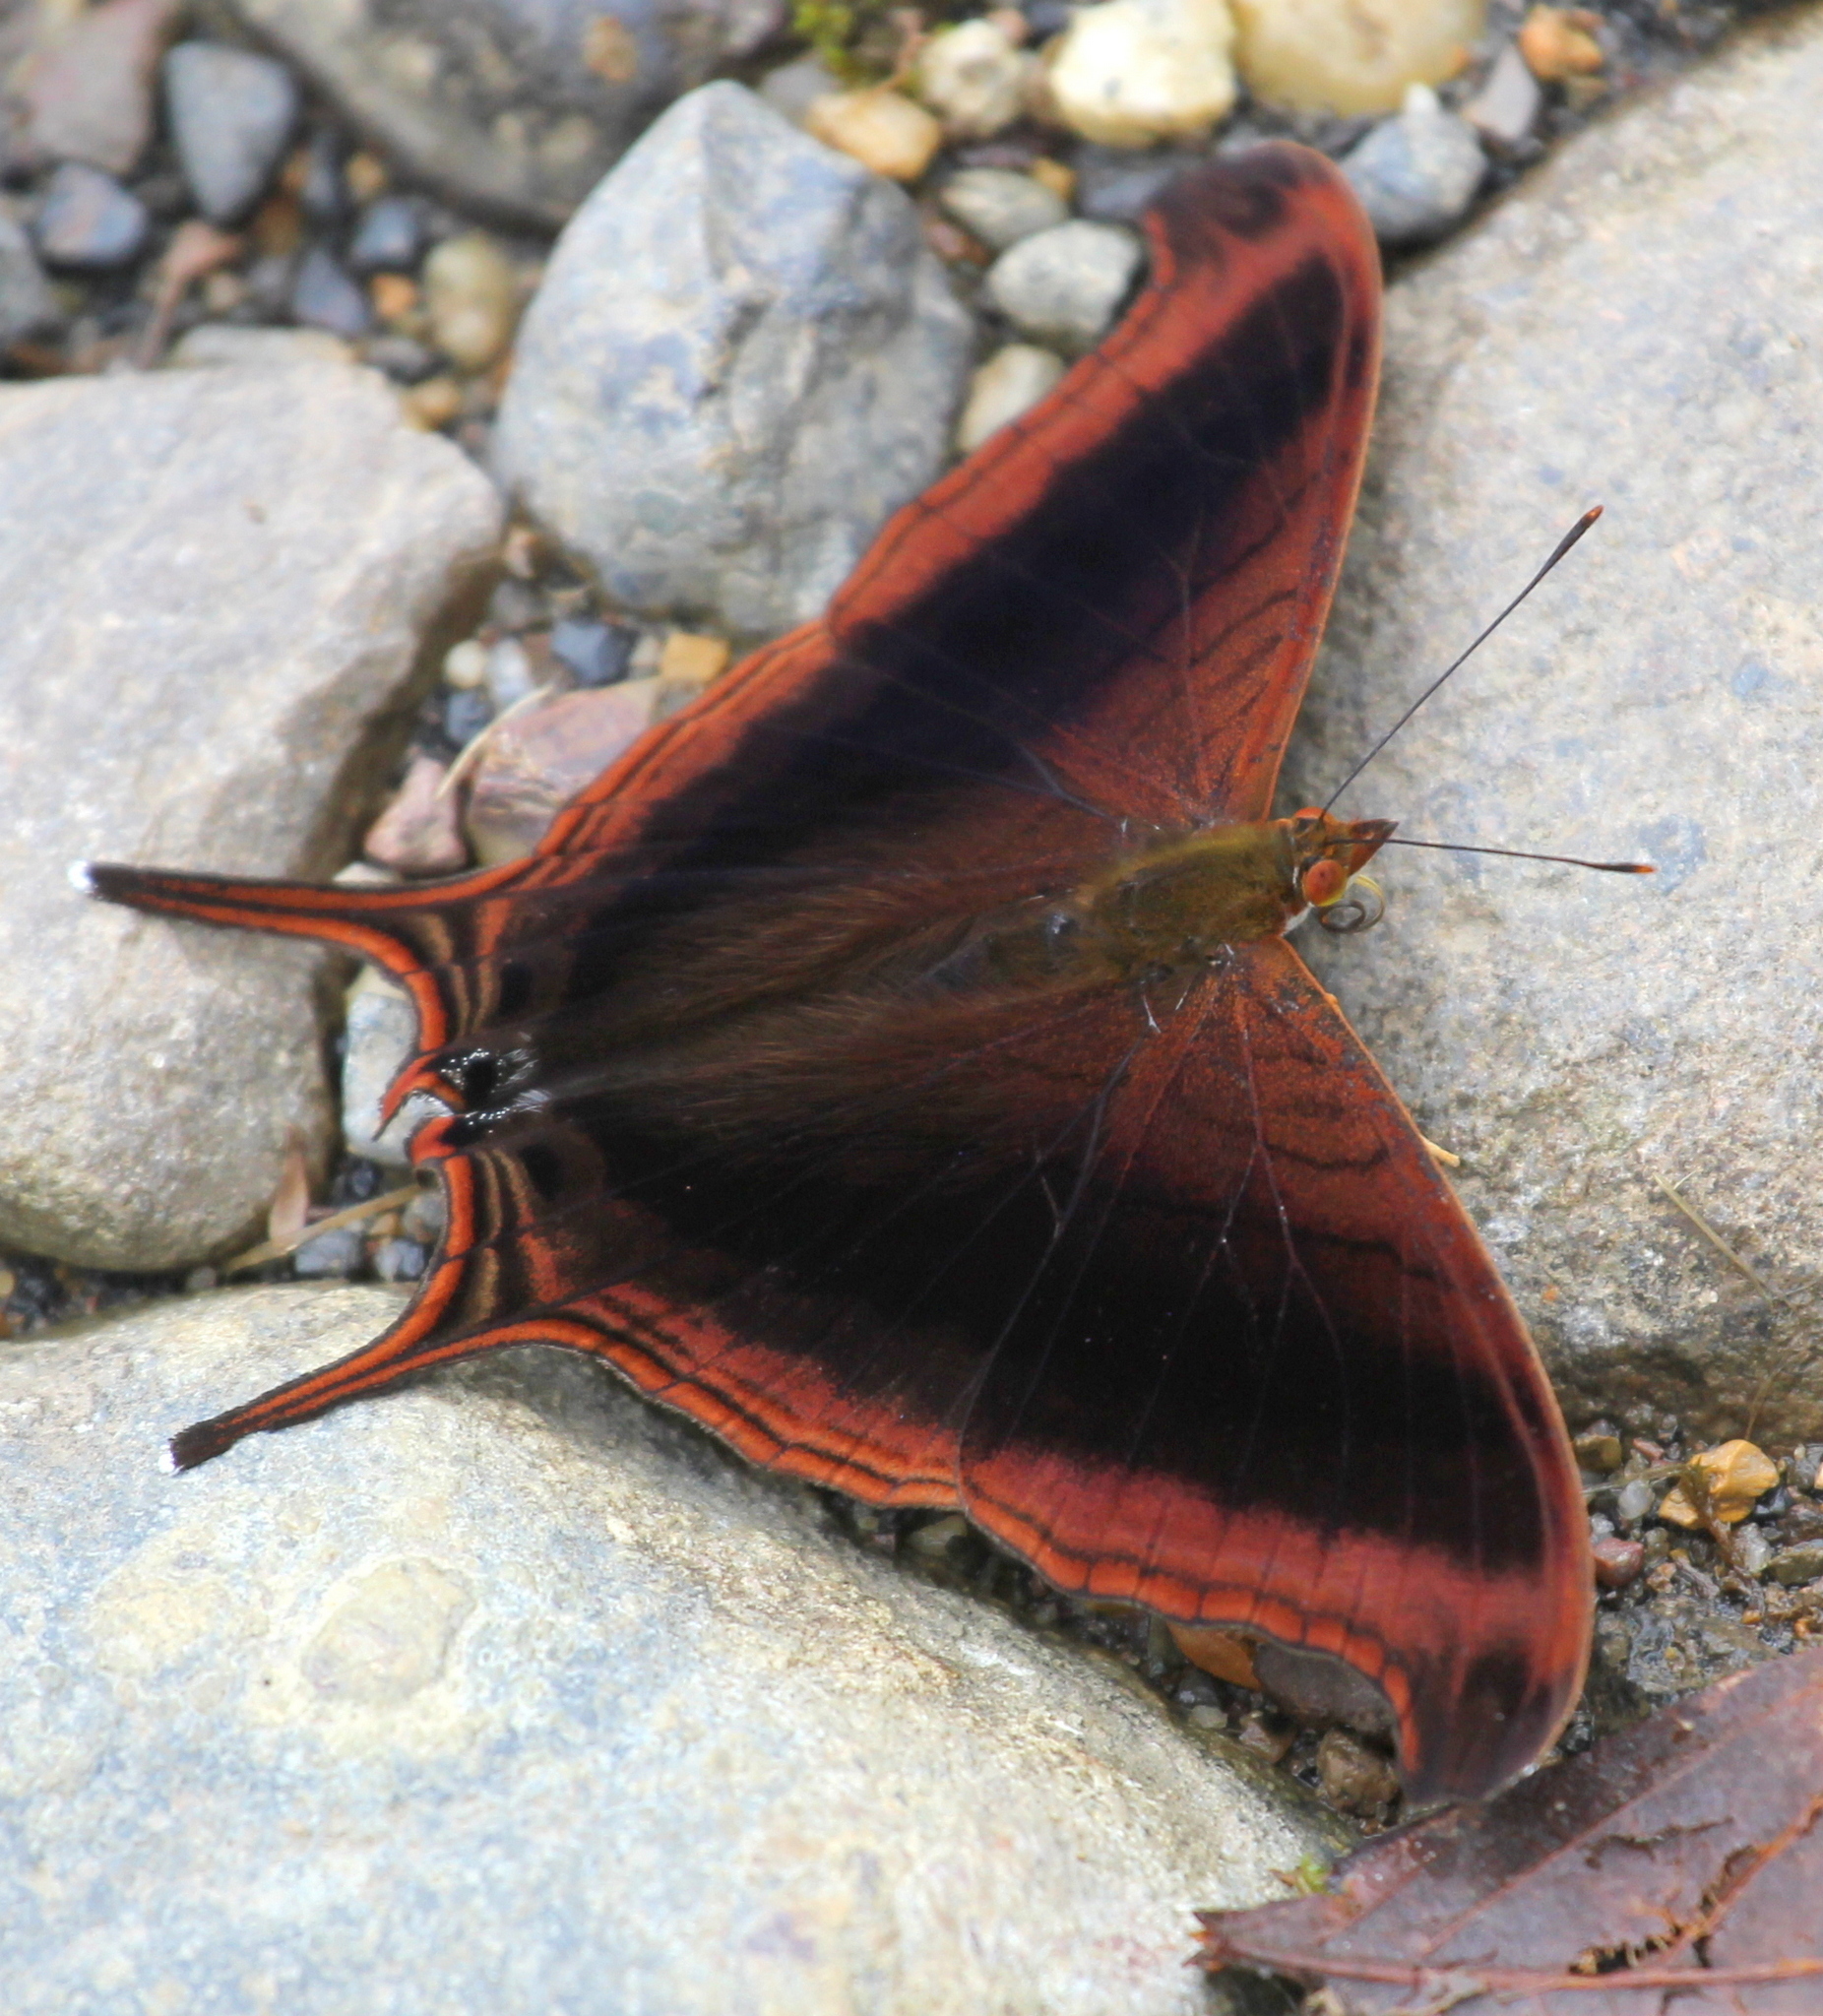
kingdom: Animalia
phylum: Arthropoda
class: Insecta
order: Lepidoptera
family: Nymphalidae
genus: Marpesia
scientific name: Marpesia zerynthia
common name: Waiter daggerwing
